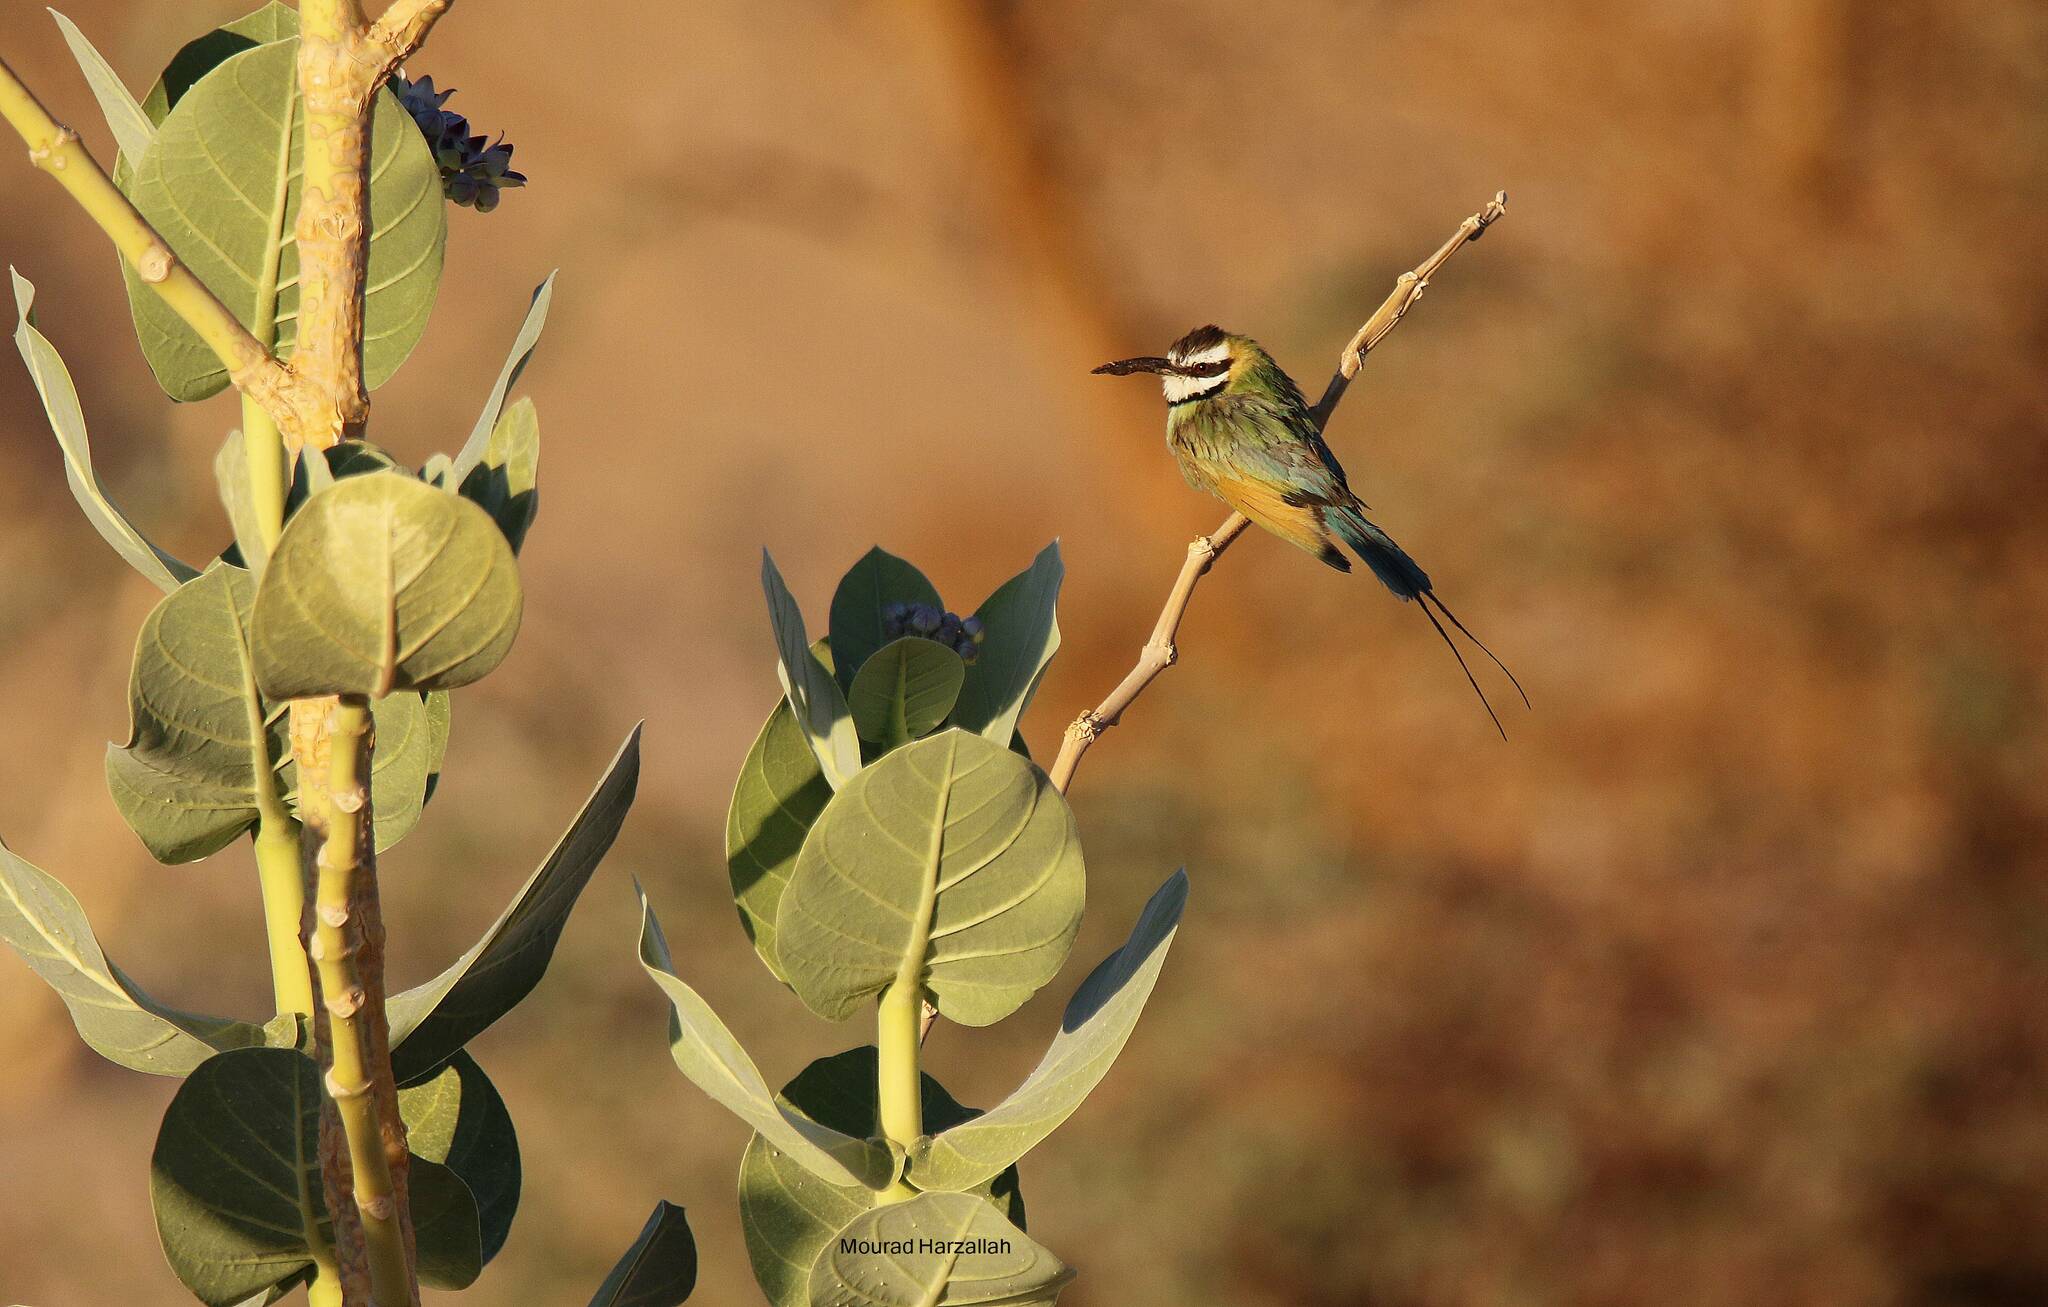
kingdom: Animalia
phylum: Chordata
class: Aves
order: Coraciiformes
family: Meropidae
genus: Merops
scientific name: Merops albicollis
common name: White-throated bee-eater
